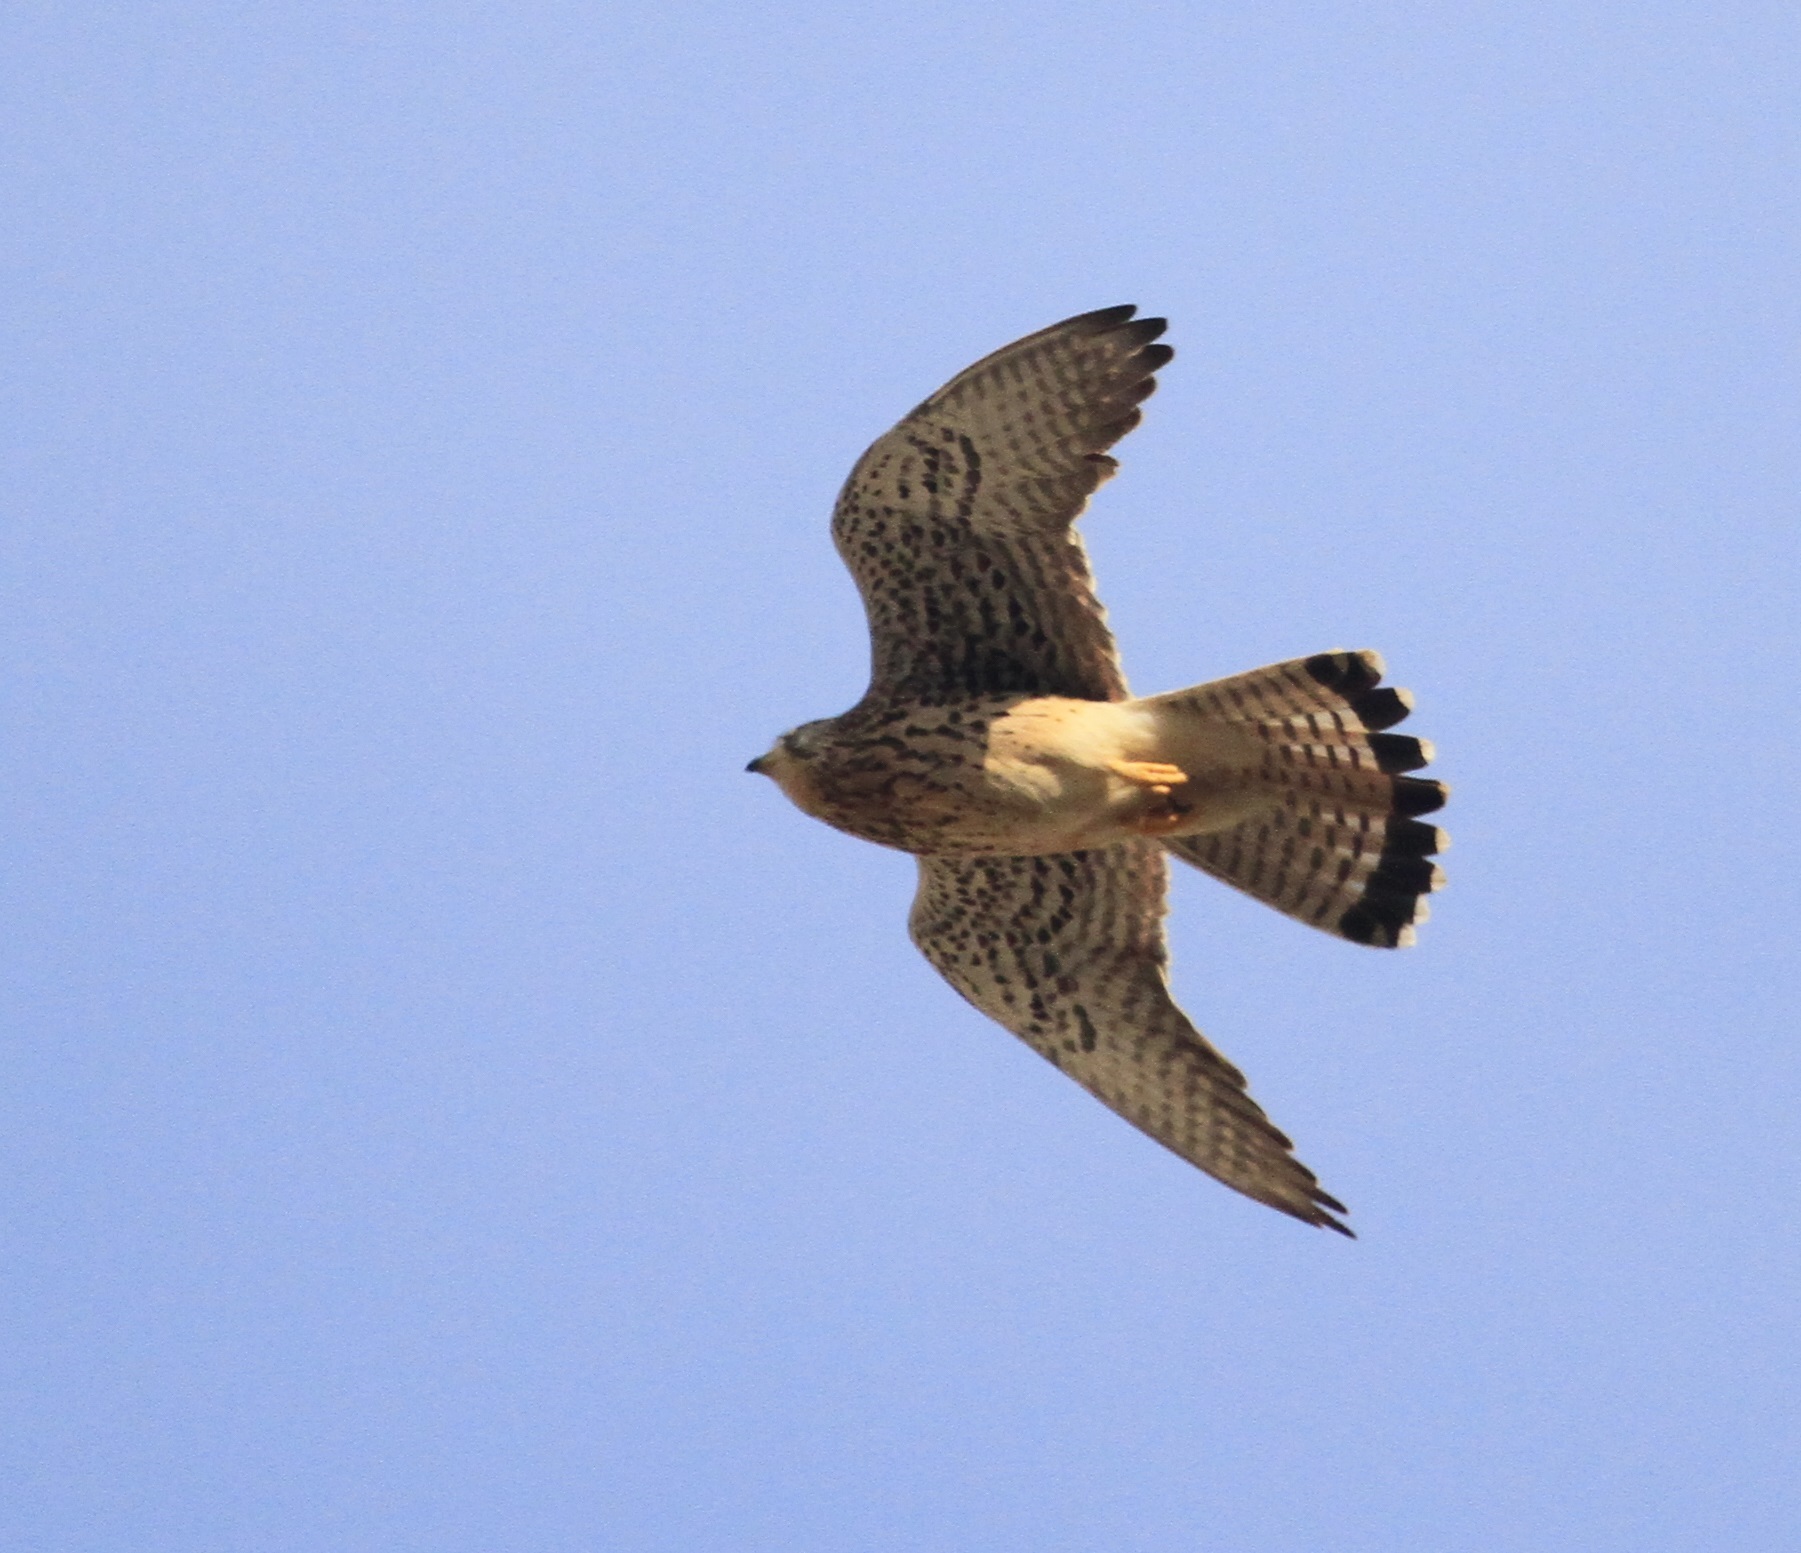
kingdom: Animalia
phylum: Chordata
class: Aves
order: Falconiformes
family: Falconidae
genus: Falco
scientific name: Falco tinnunculus
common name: Common kestrel
